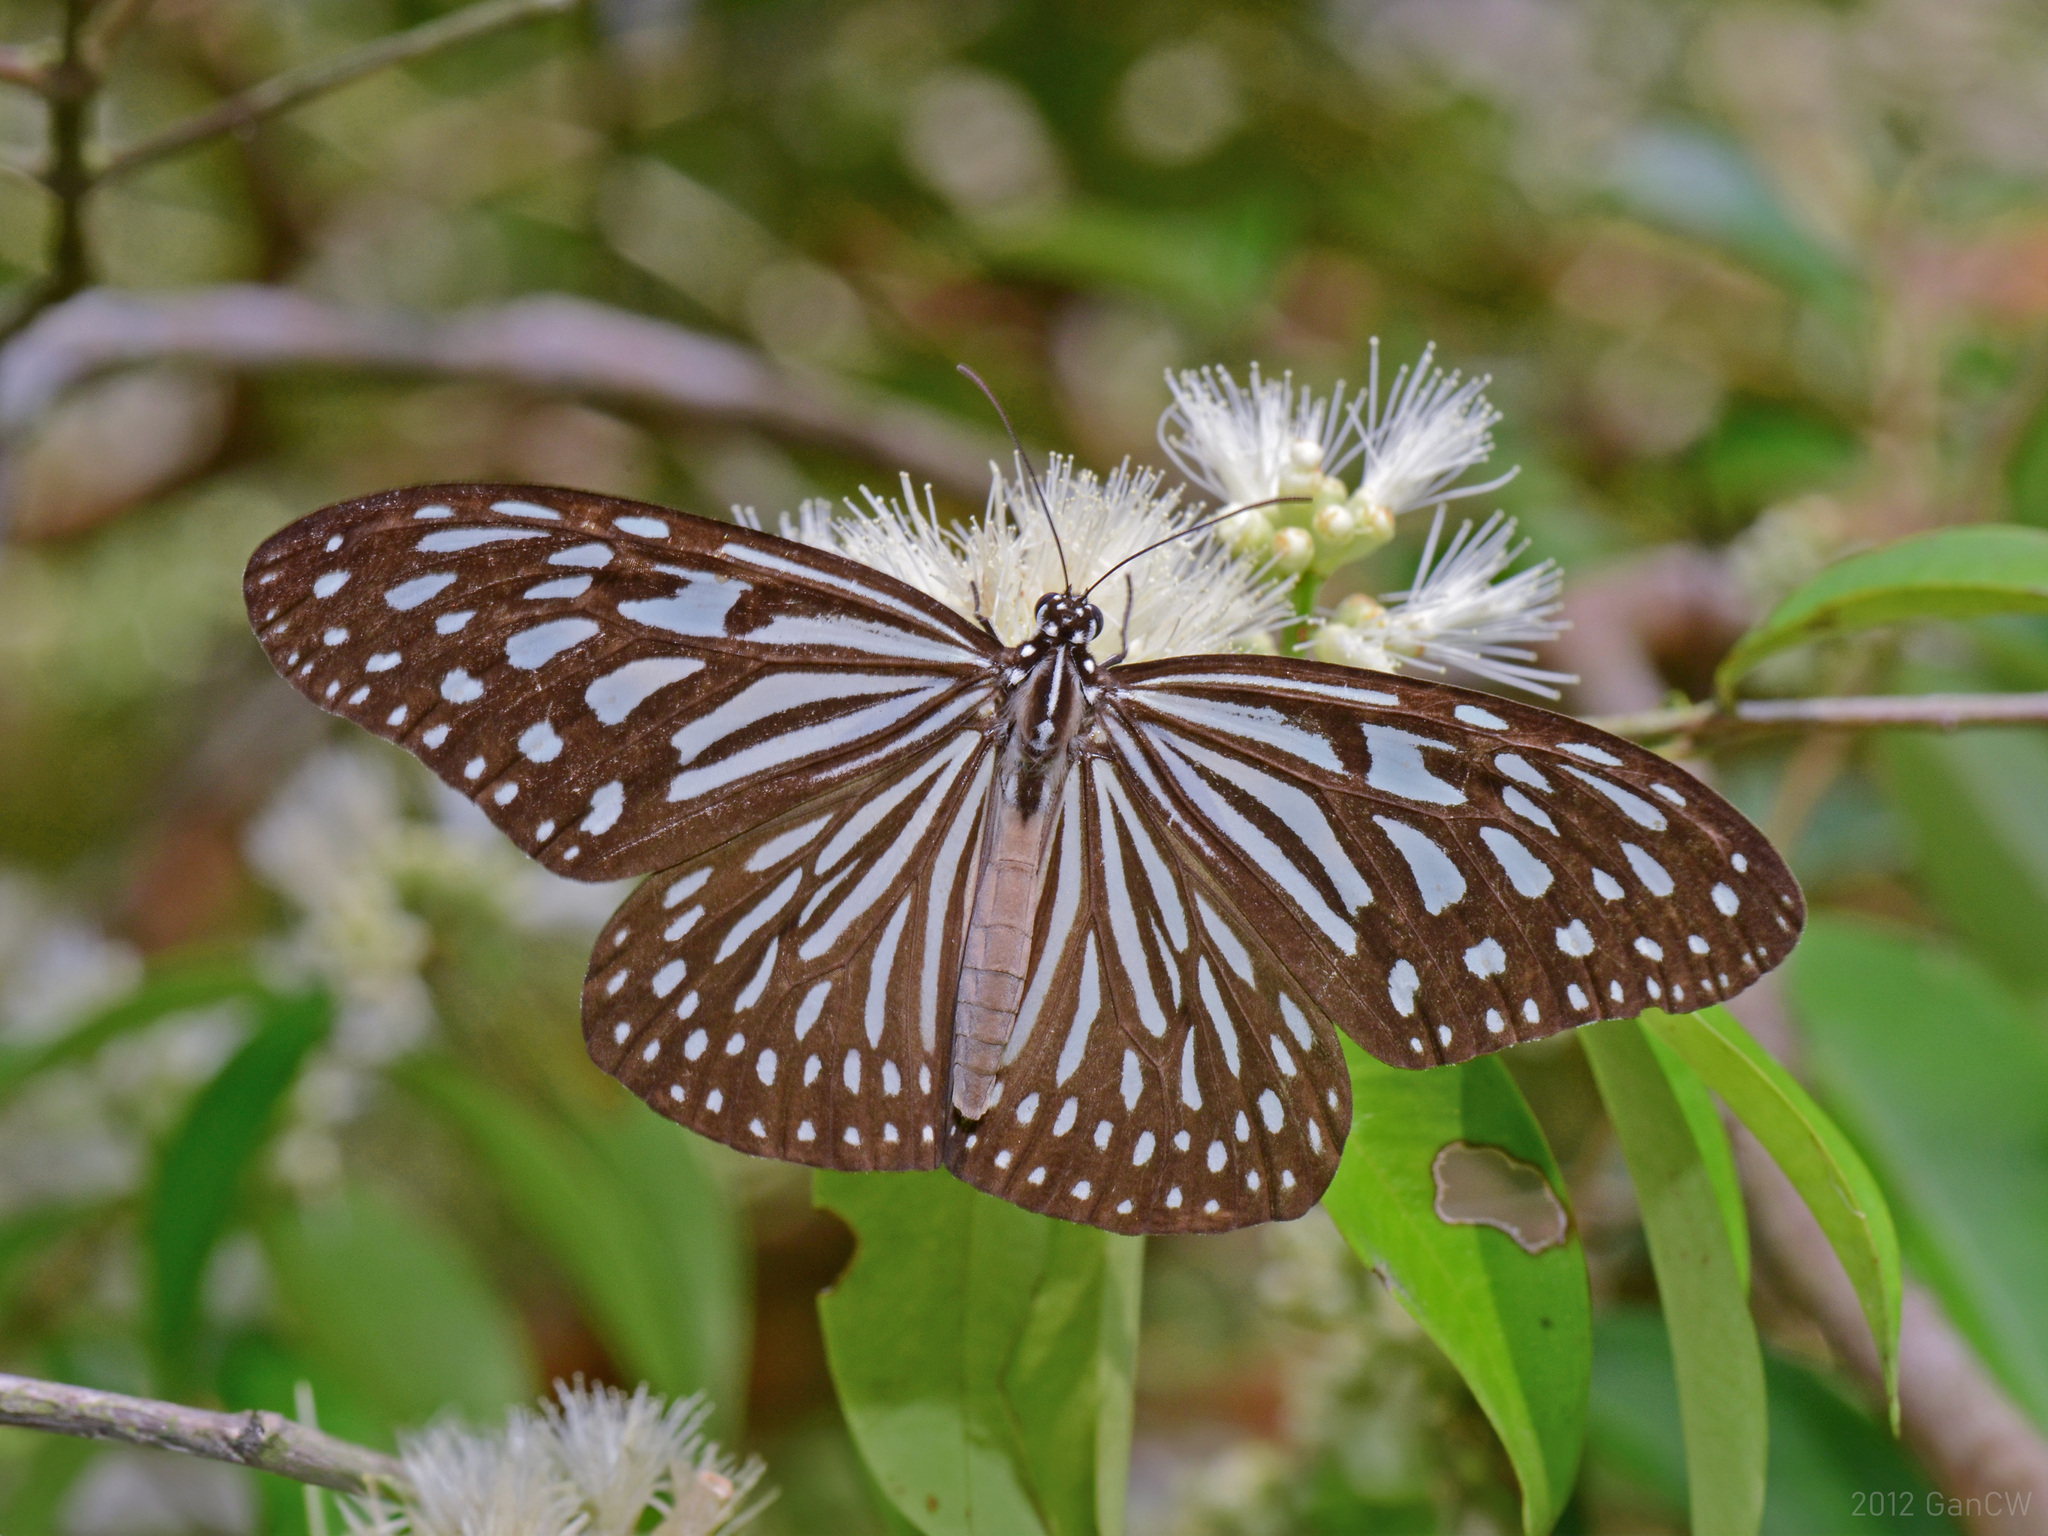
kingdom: Animalia
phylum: Arthropoda
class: Insecta
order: Lepidoptera
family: Nymphalidae
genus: Ideopsis
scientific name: Ideopsis vulgaris
